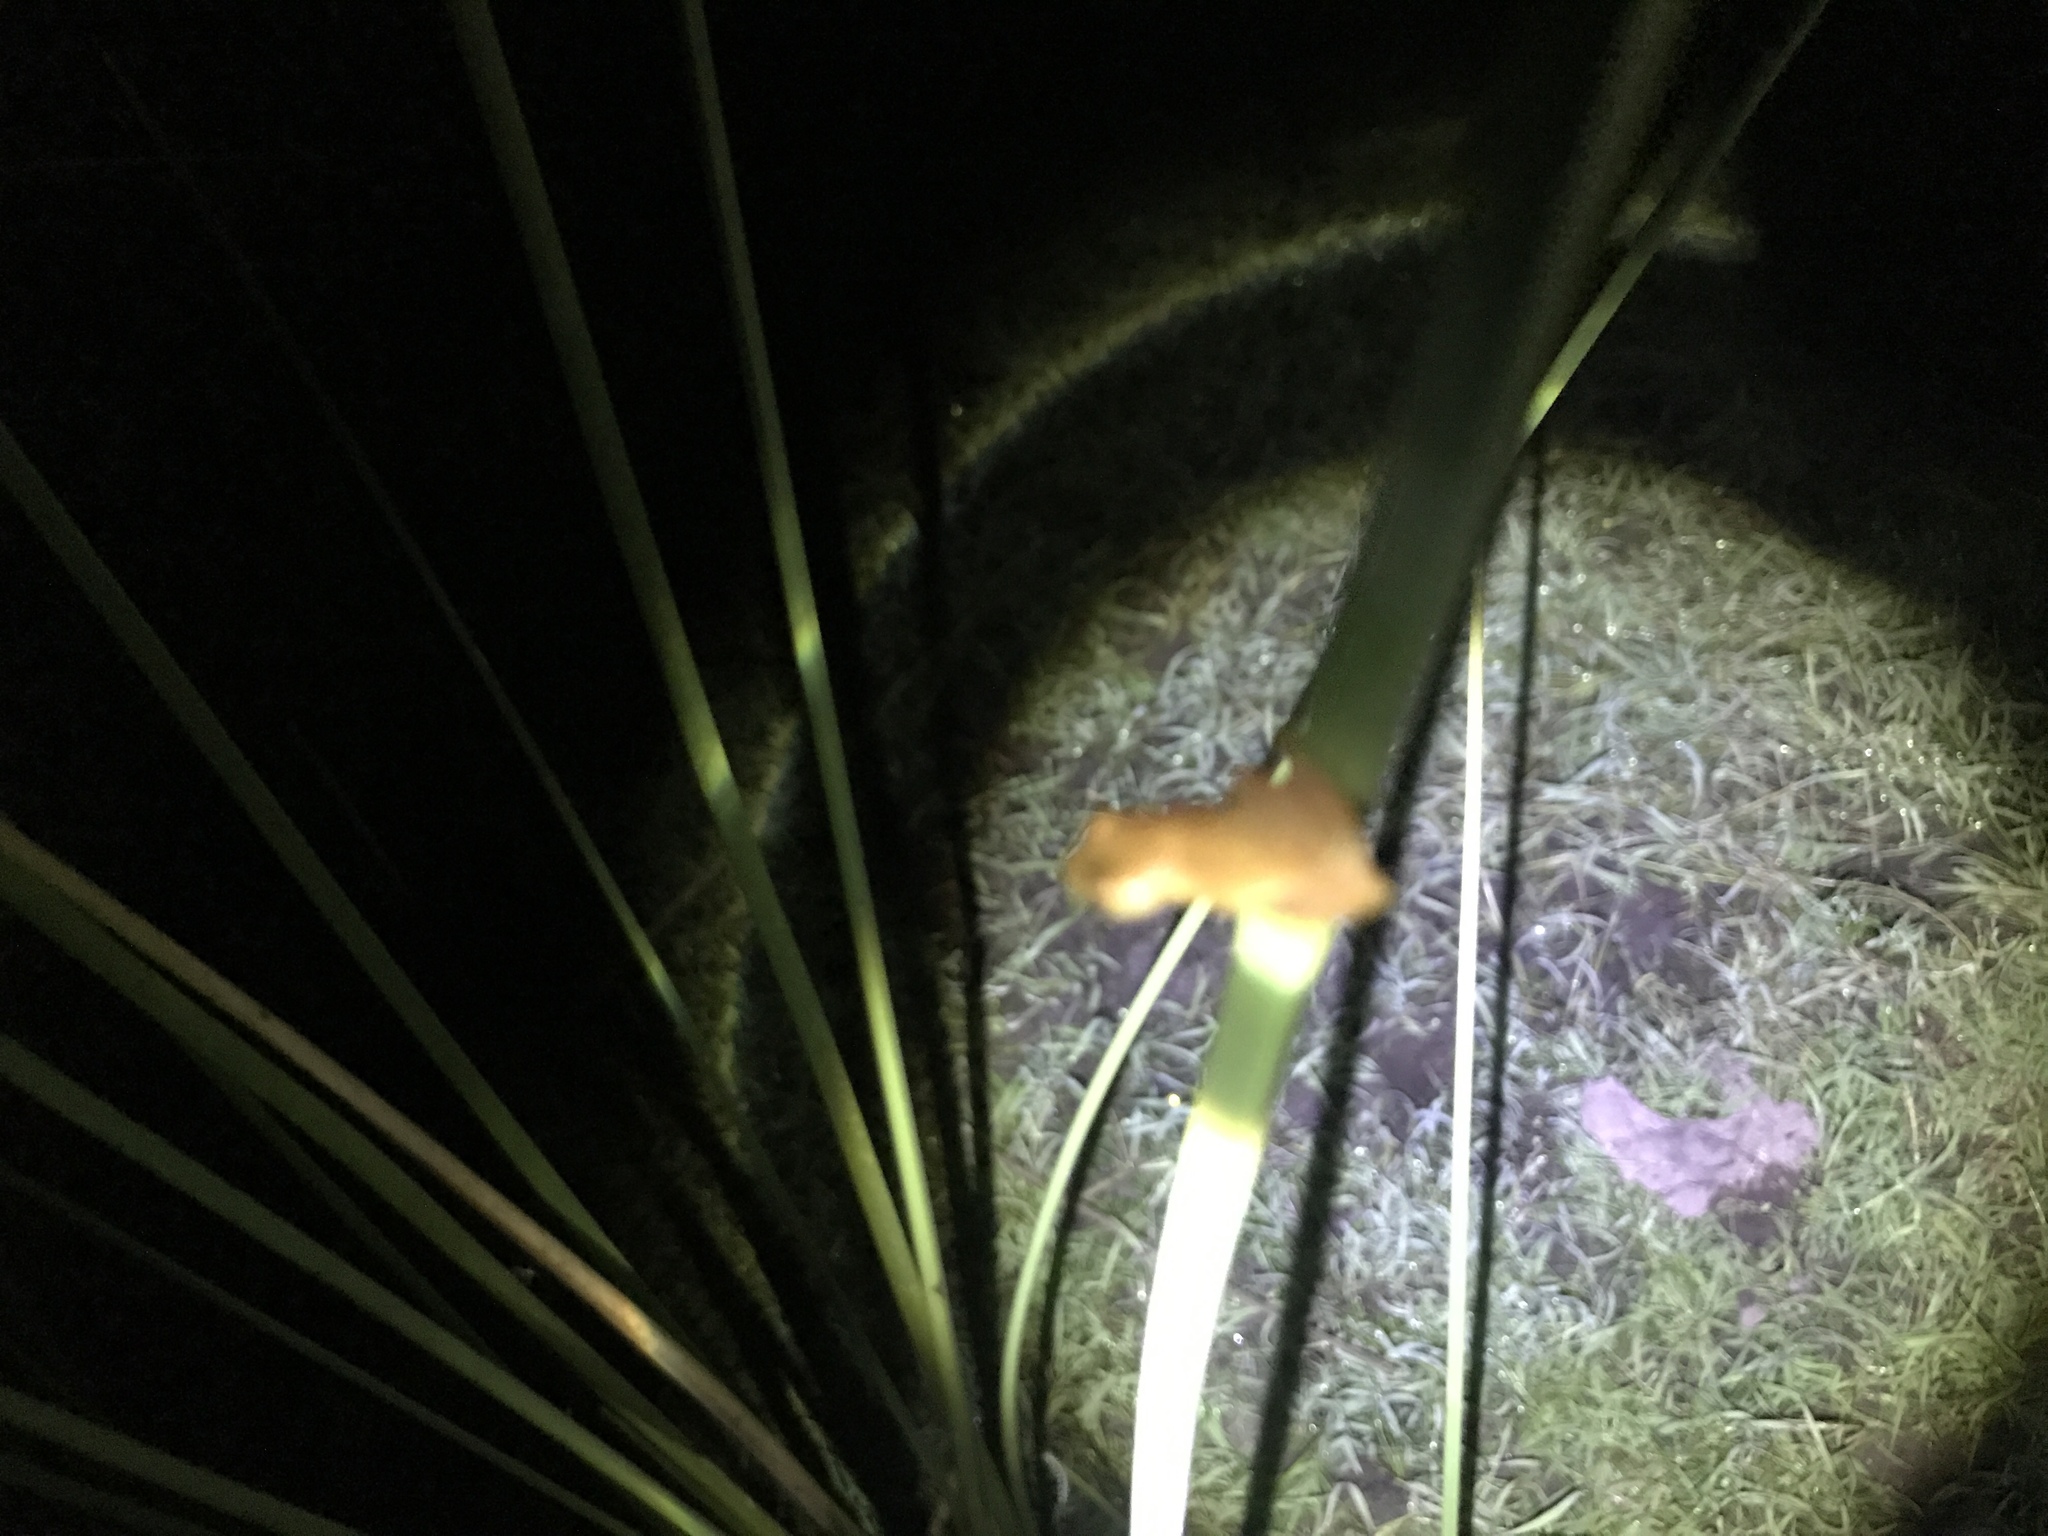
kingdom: Animalia
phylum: Chordata
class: Amphibia
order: Anura
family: Hylidae
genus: Dendropsophus
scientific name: Dendropsophus sanborni
